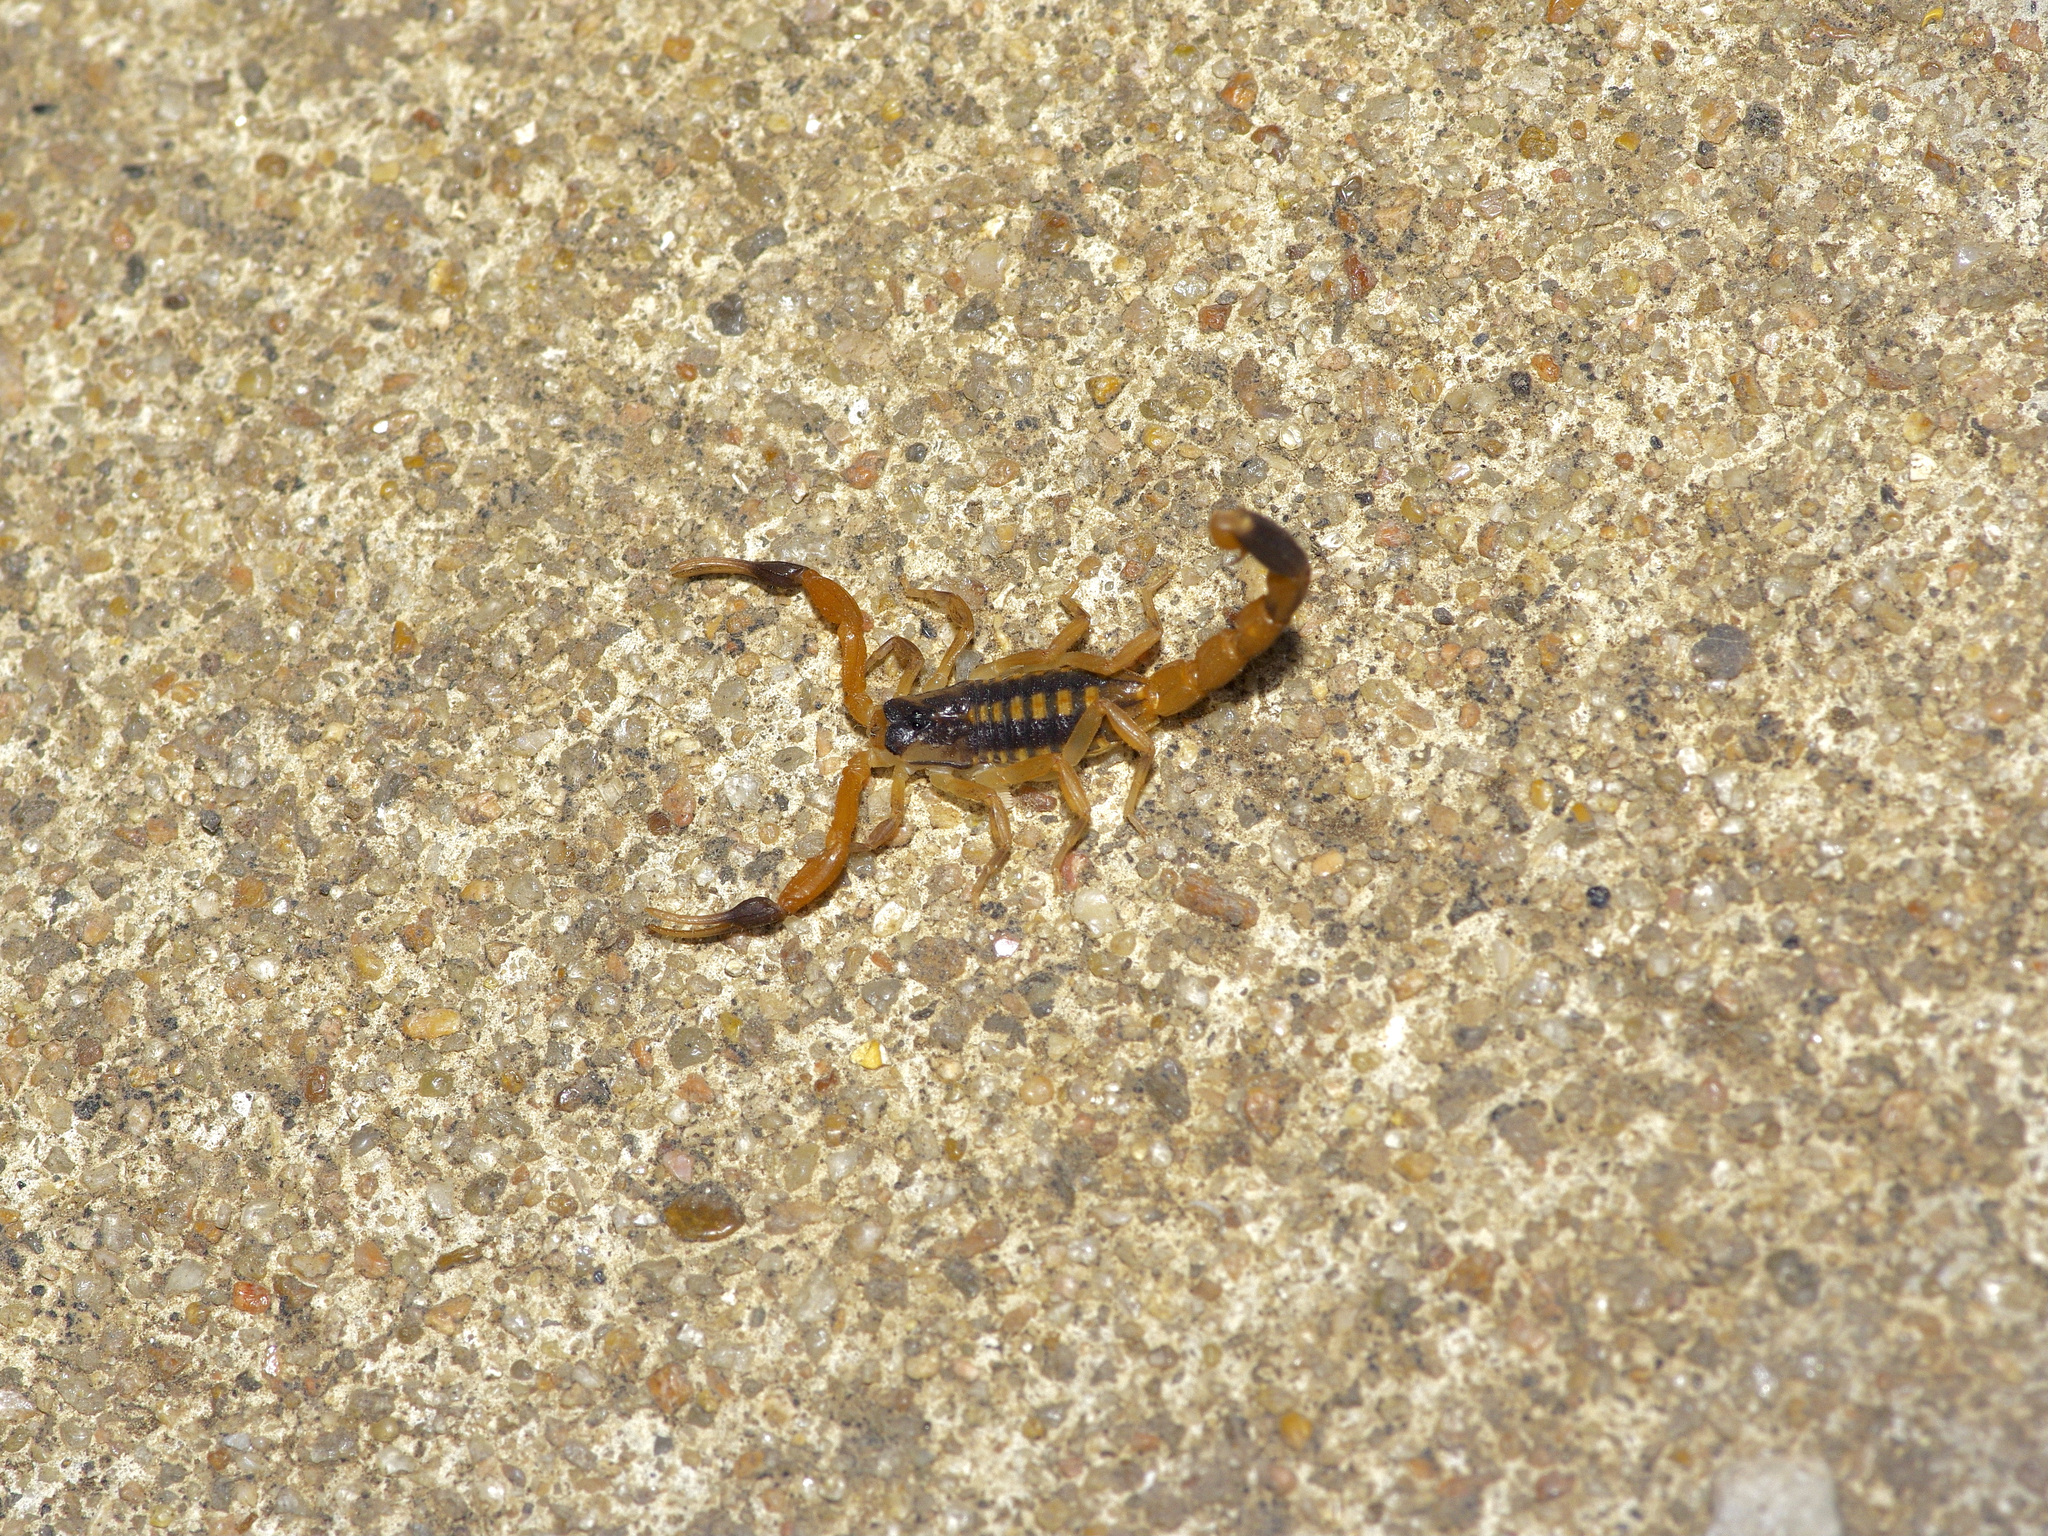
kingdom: Animalia
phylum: Arthropoda
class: Arachnida
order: Scorpiones
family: Buthidae
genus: Centruroides
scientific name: Centruroides vittatus
